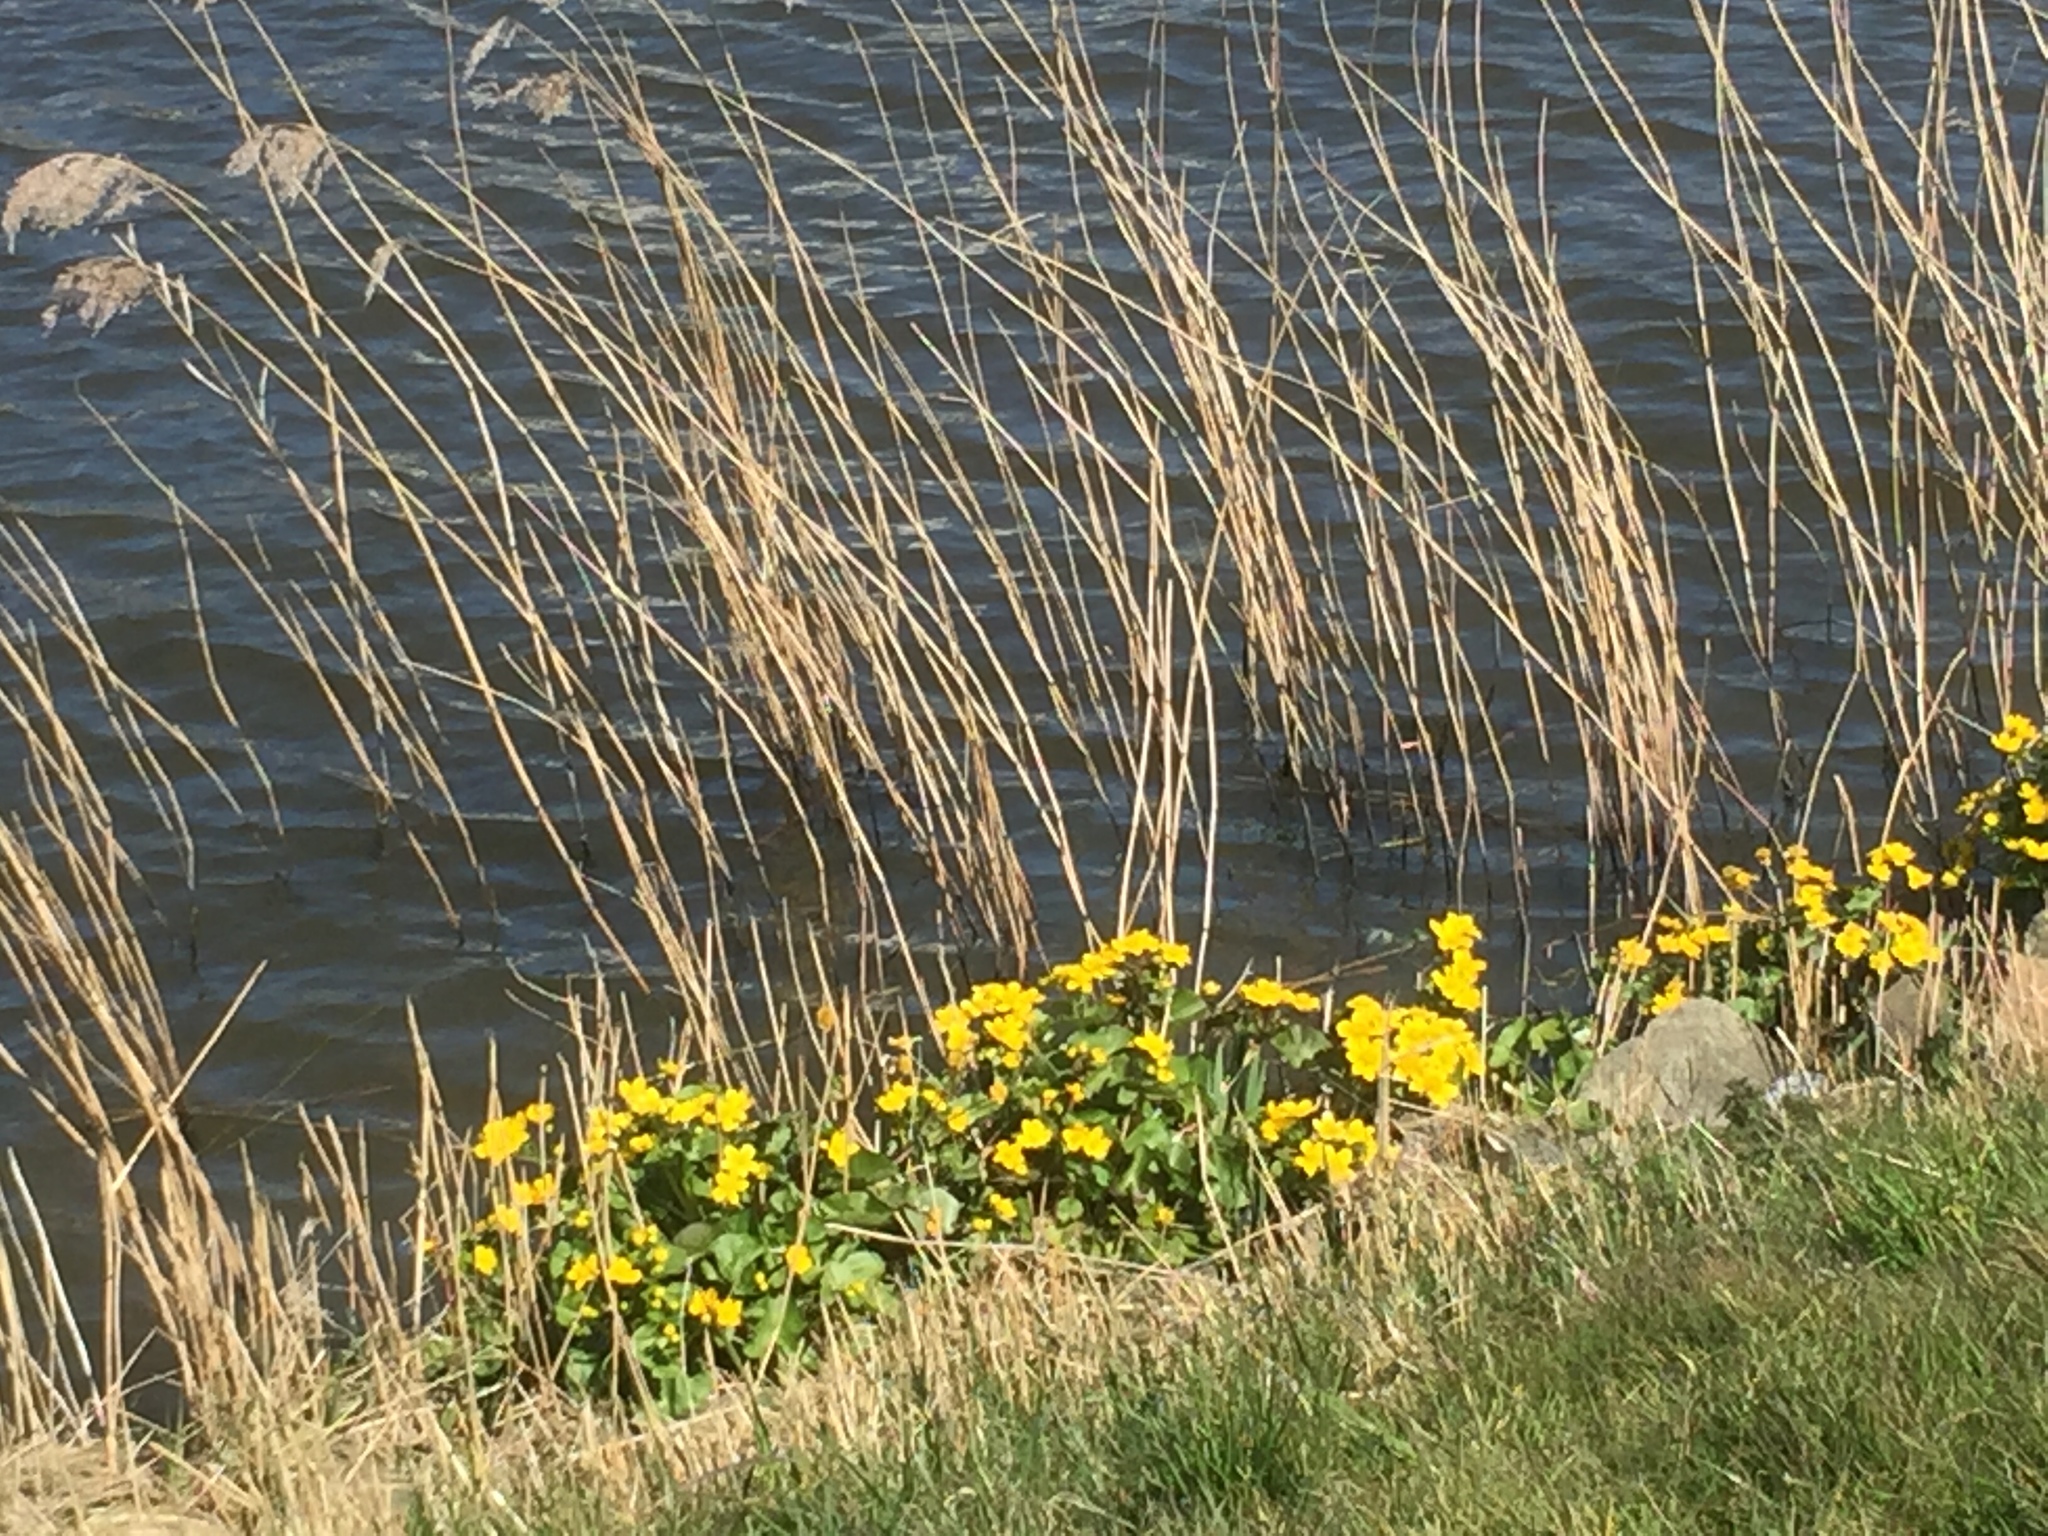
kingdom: Plantae
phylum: Tracheophyta
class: Magnoliopsida
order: Ranunculales
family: Ranunculaceae
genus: Caltha
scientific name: Caltha palustris
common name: Marsh marigold
